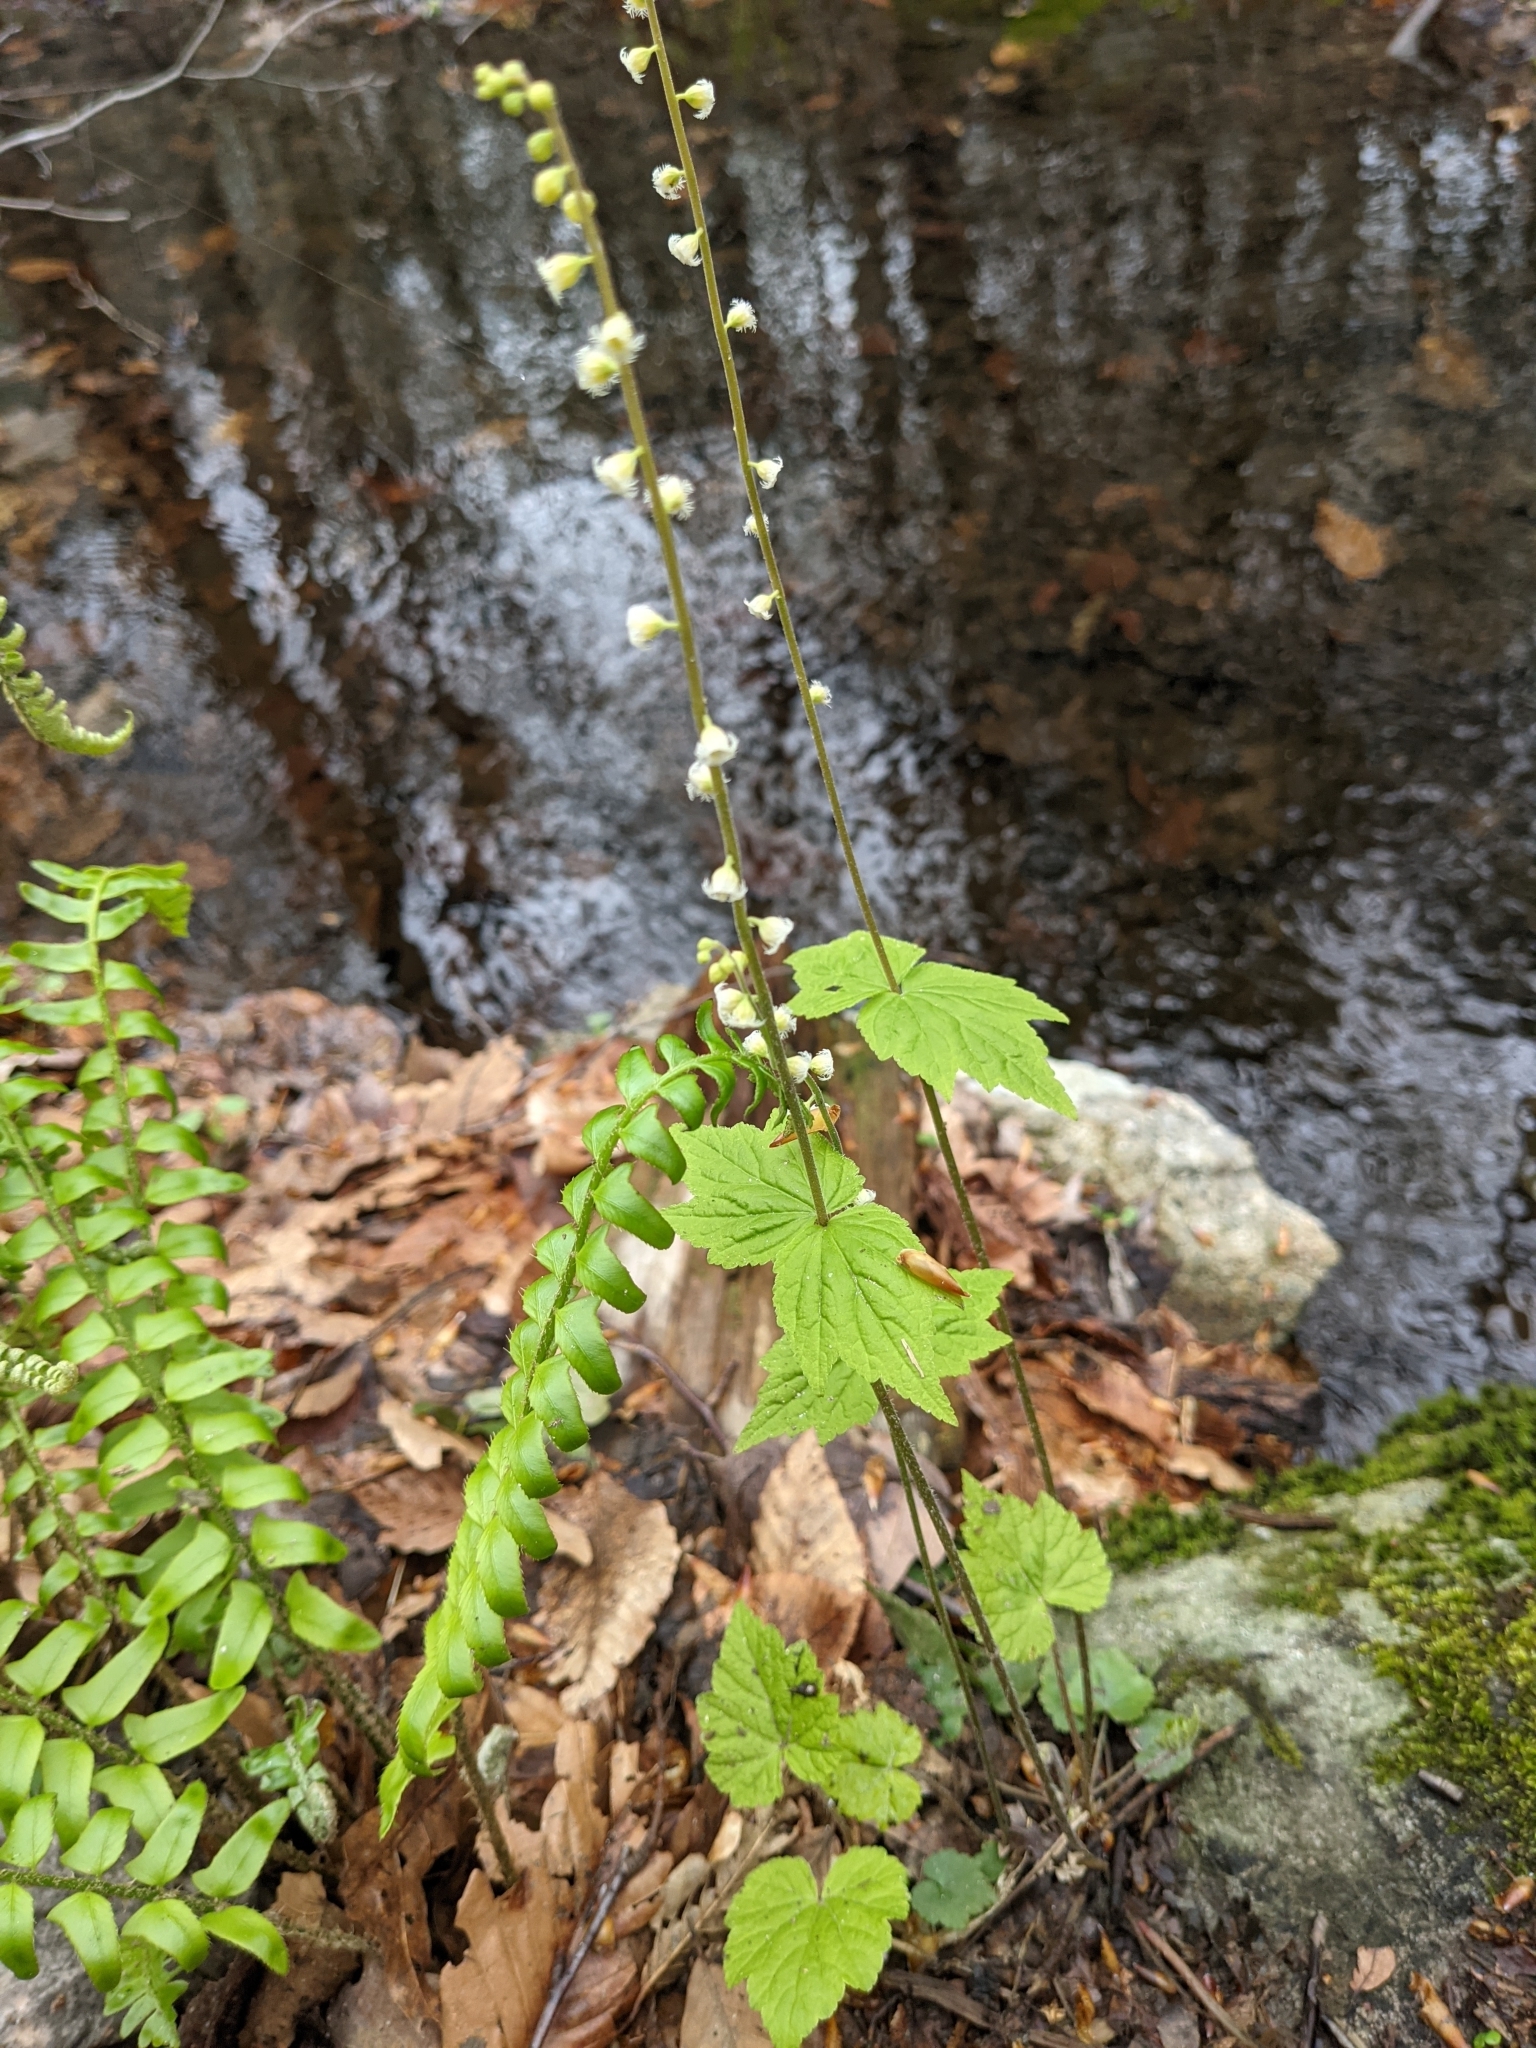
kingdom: Plantae
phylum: Tracheophyta
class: Magnoliopsida
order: Saxifragales
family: Saxifragaceae
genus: Mitella
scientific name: Mitella diphylla
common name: Coolwort
